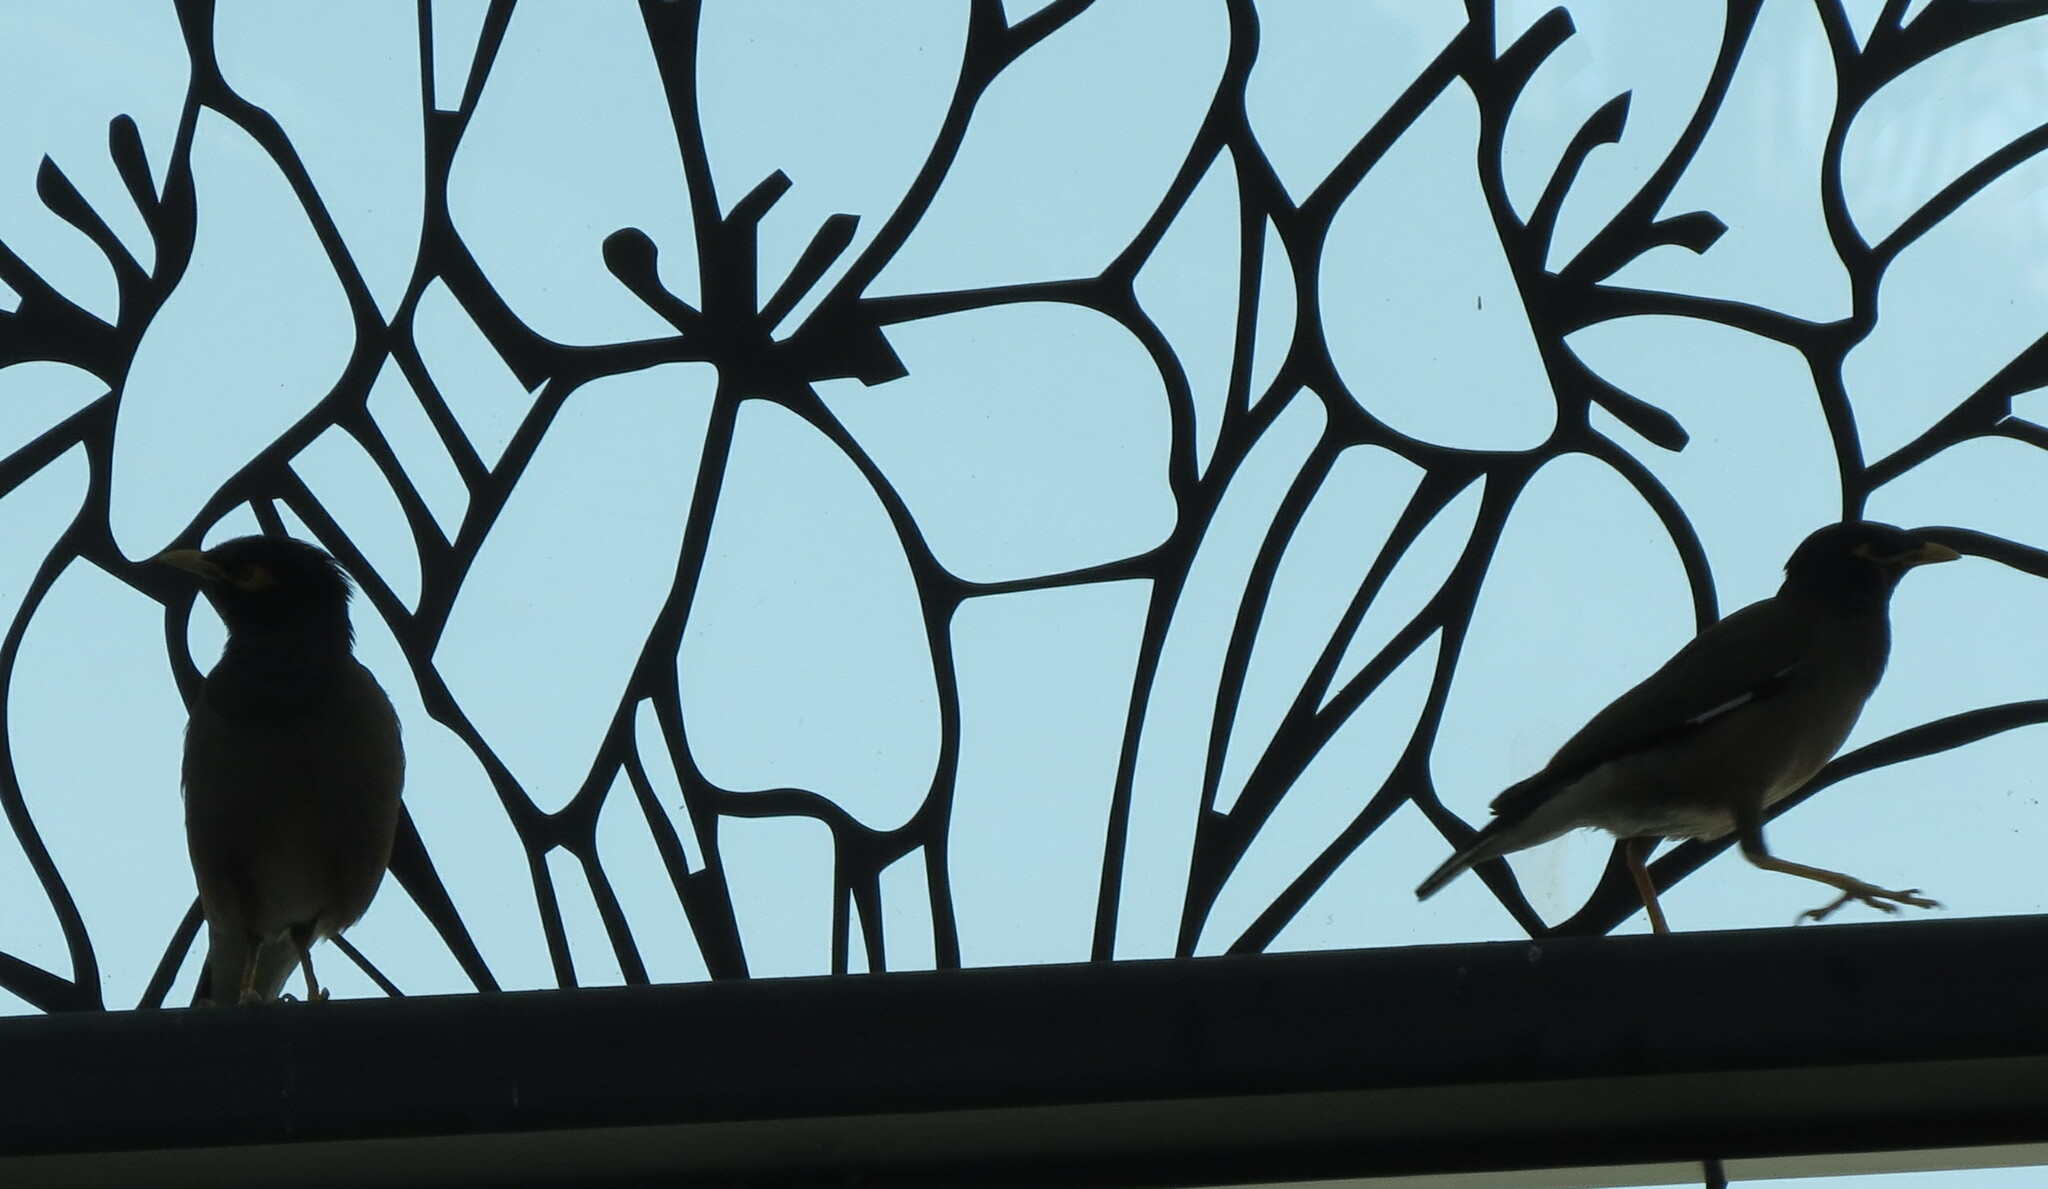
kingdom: Animalia
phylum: Chordata
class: Aves
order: Passeriformes
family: Sturnidae
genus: Acridotheres
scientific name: Acridotheres tristis
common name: Common myna
